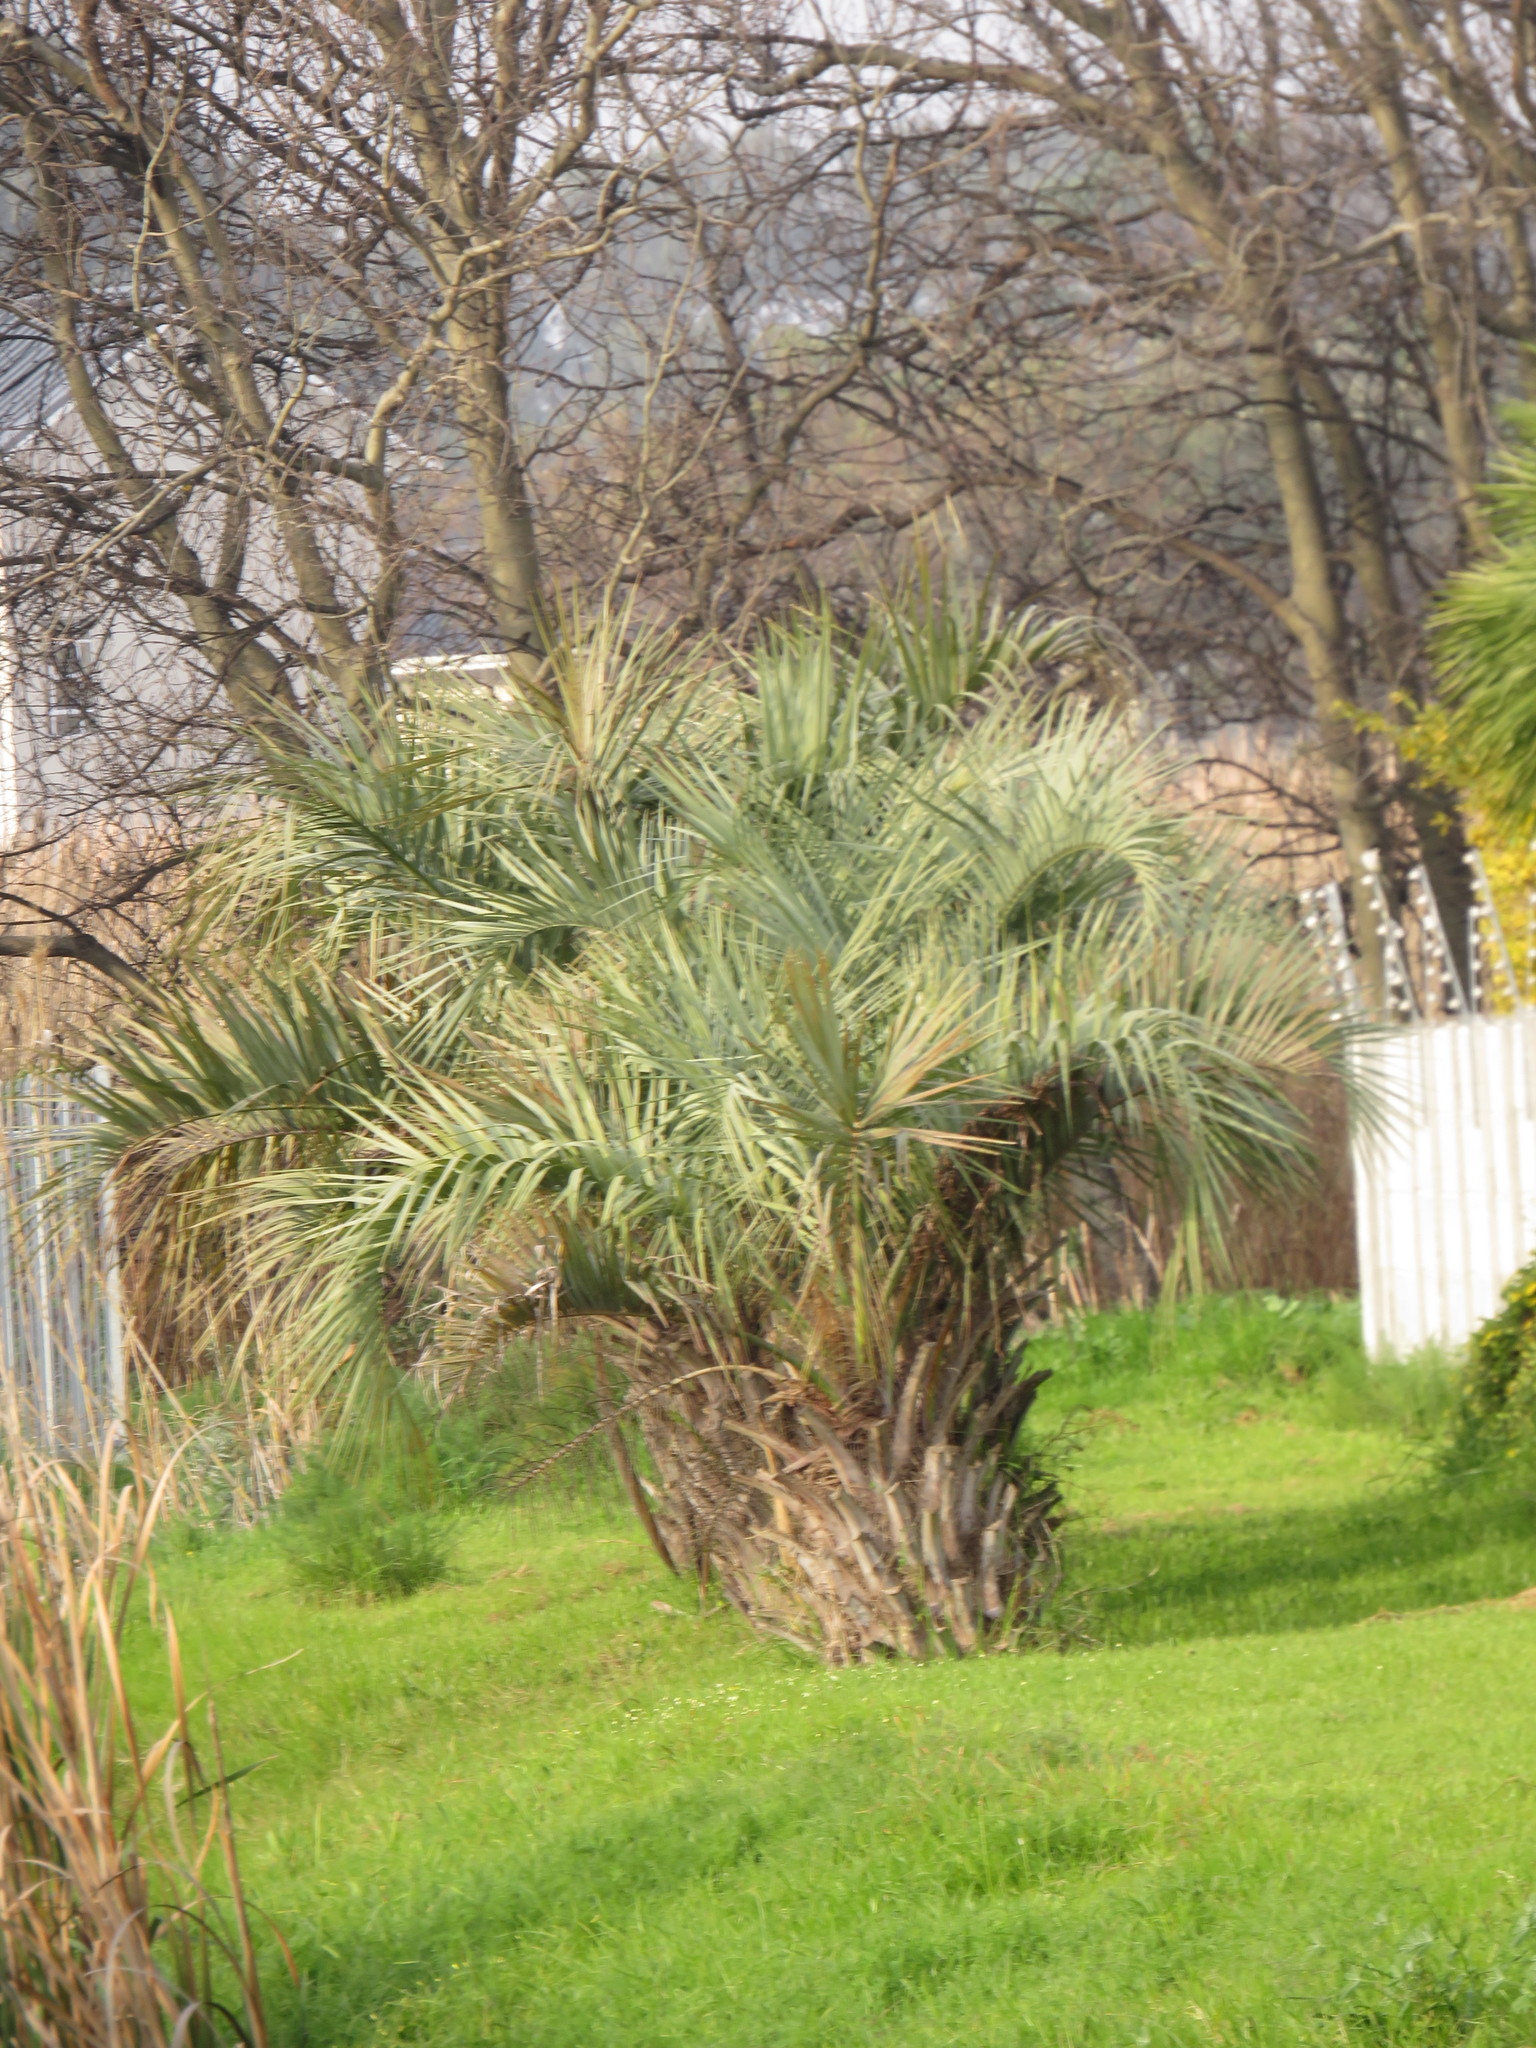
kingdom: Plantae
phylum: Tracheophyta
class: Liliopsida
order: Arecales
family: Arecaceae
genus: Butia
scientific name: Butia odorata
